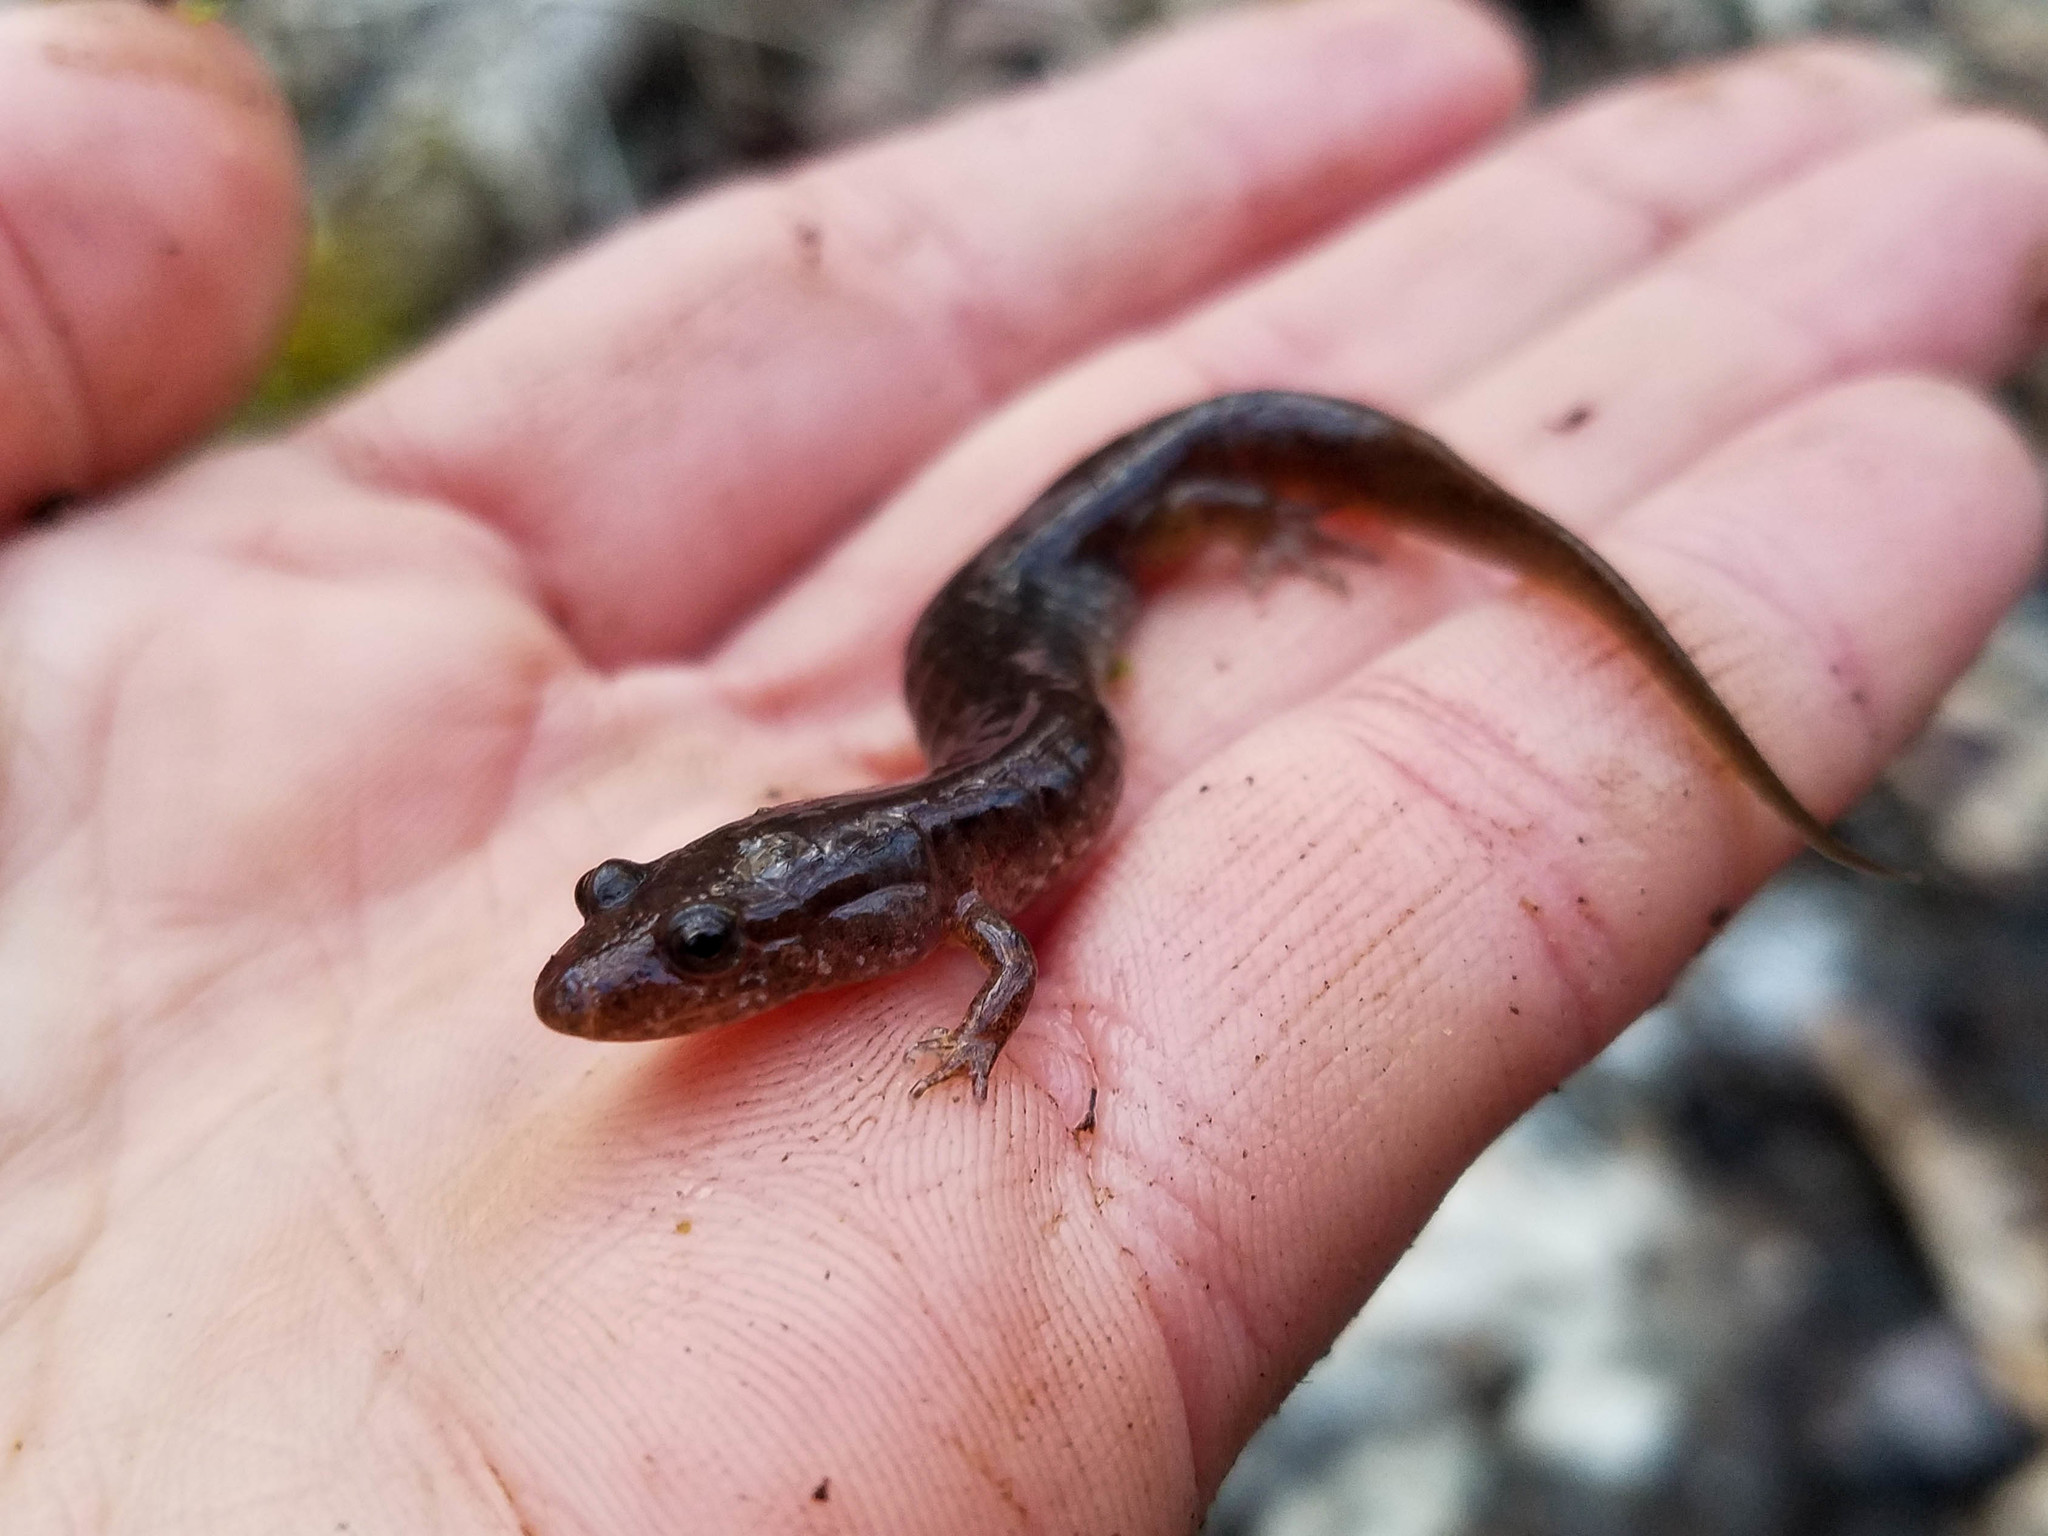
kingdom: Animalia
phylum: Chordata
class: Amphibia
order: Caudata
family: Plethodontidae
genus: Desmognathus
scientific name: Desmognathus monticola
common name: Seal salamander
